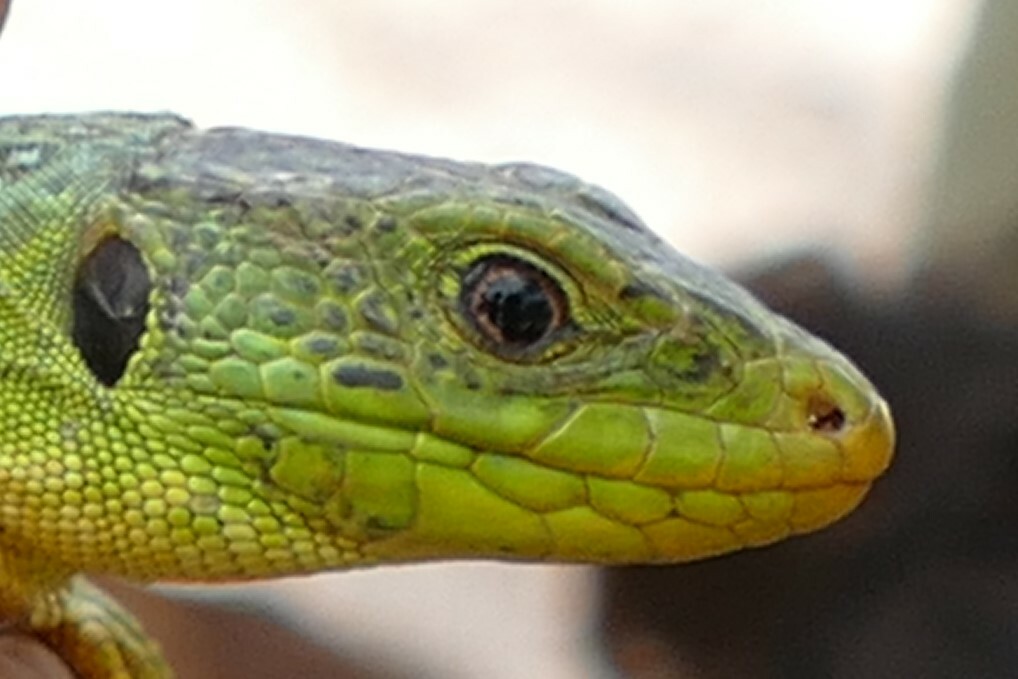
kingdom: Animalia
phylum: Chordata
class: Squamata
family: Lacertidae
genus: Timon
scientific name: Timon lepidus
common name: Ocellated lizard
